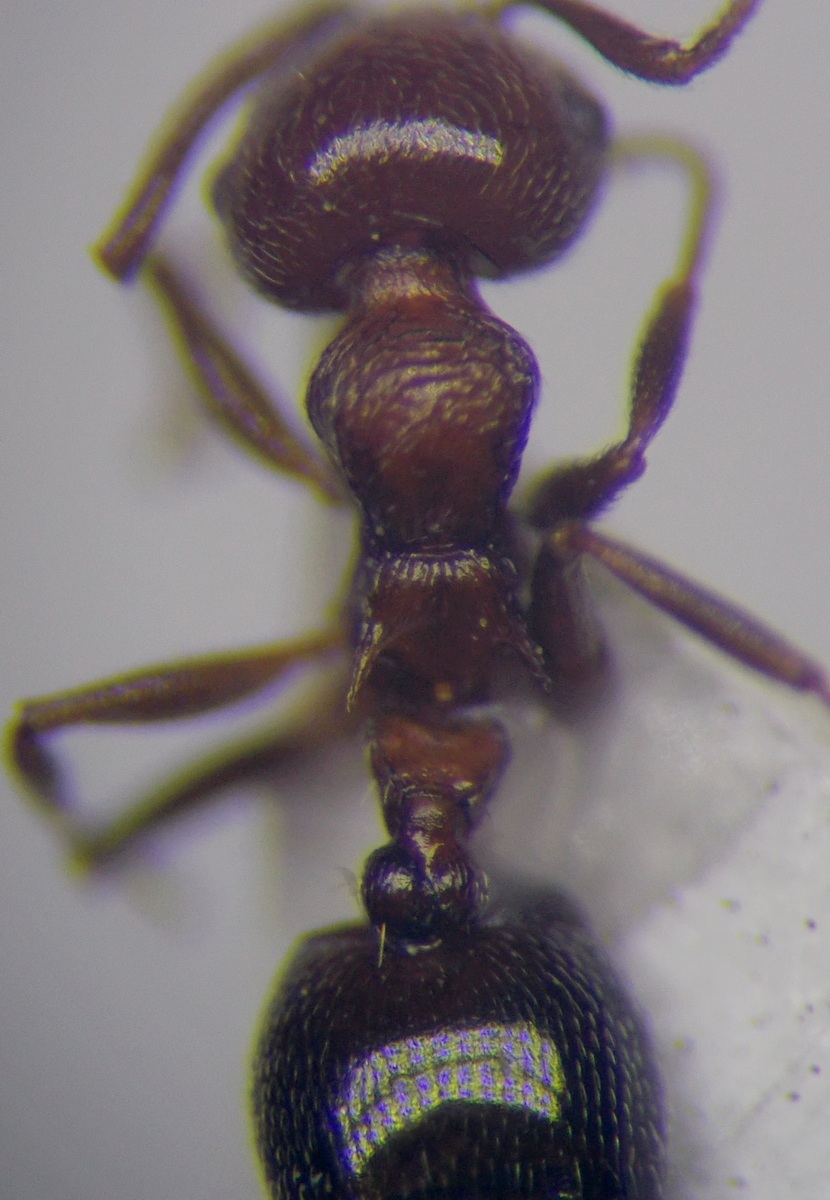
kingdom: Animalia
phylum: Arthropoda
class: Insecta
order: Hymenoptera
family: Formicidae
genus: Crematogaster
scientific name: Crematogaster schmidti
